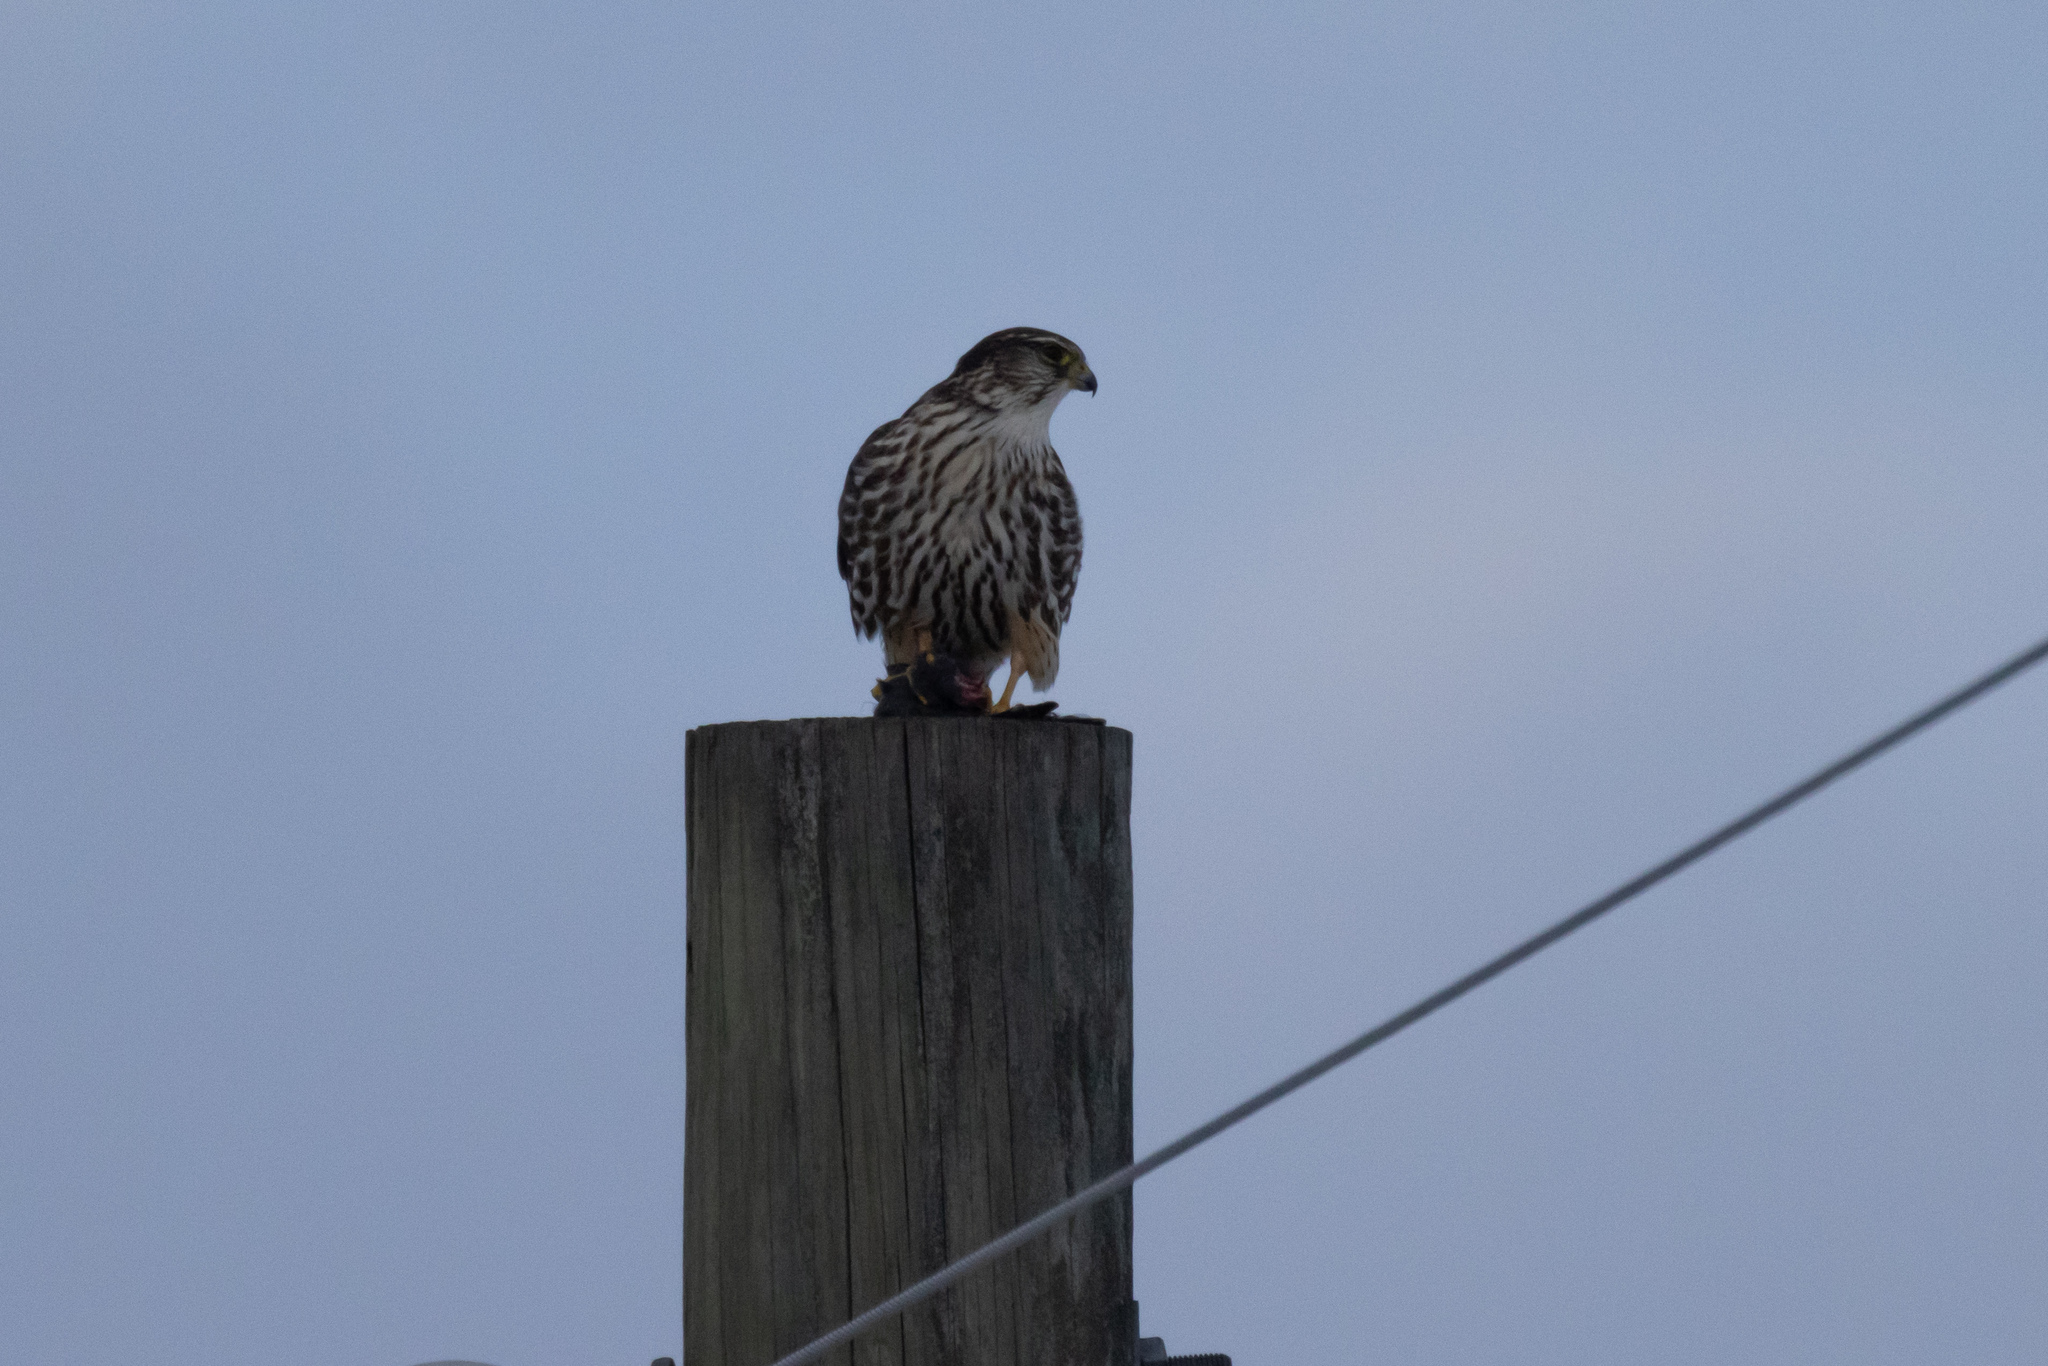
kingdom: Animalia
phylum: Chordata
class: Aves
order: Falconiformes
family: Falconidae
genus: Falco
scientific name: Falco columbarius
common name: Merlin
